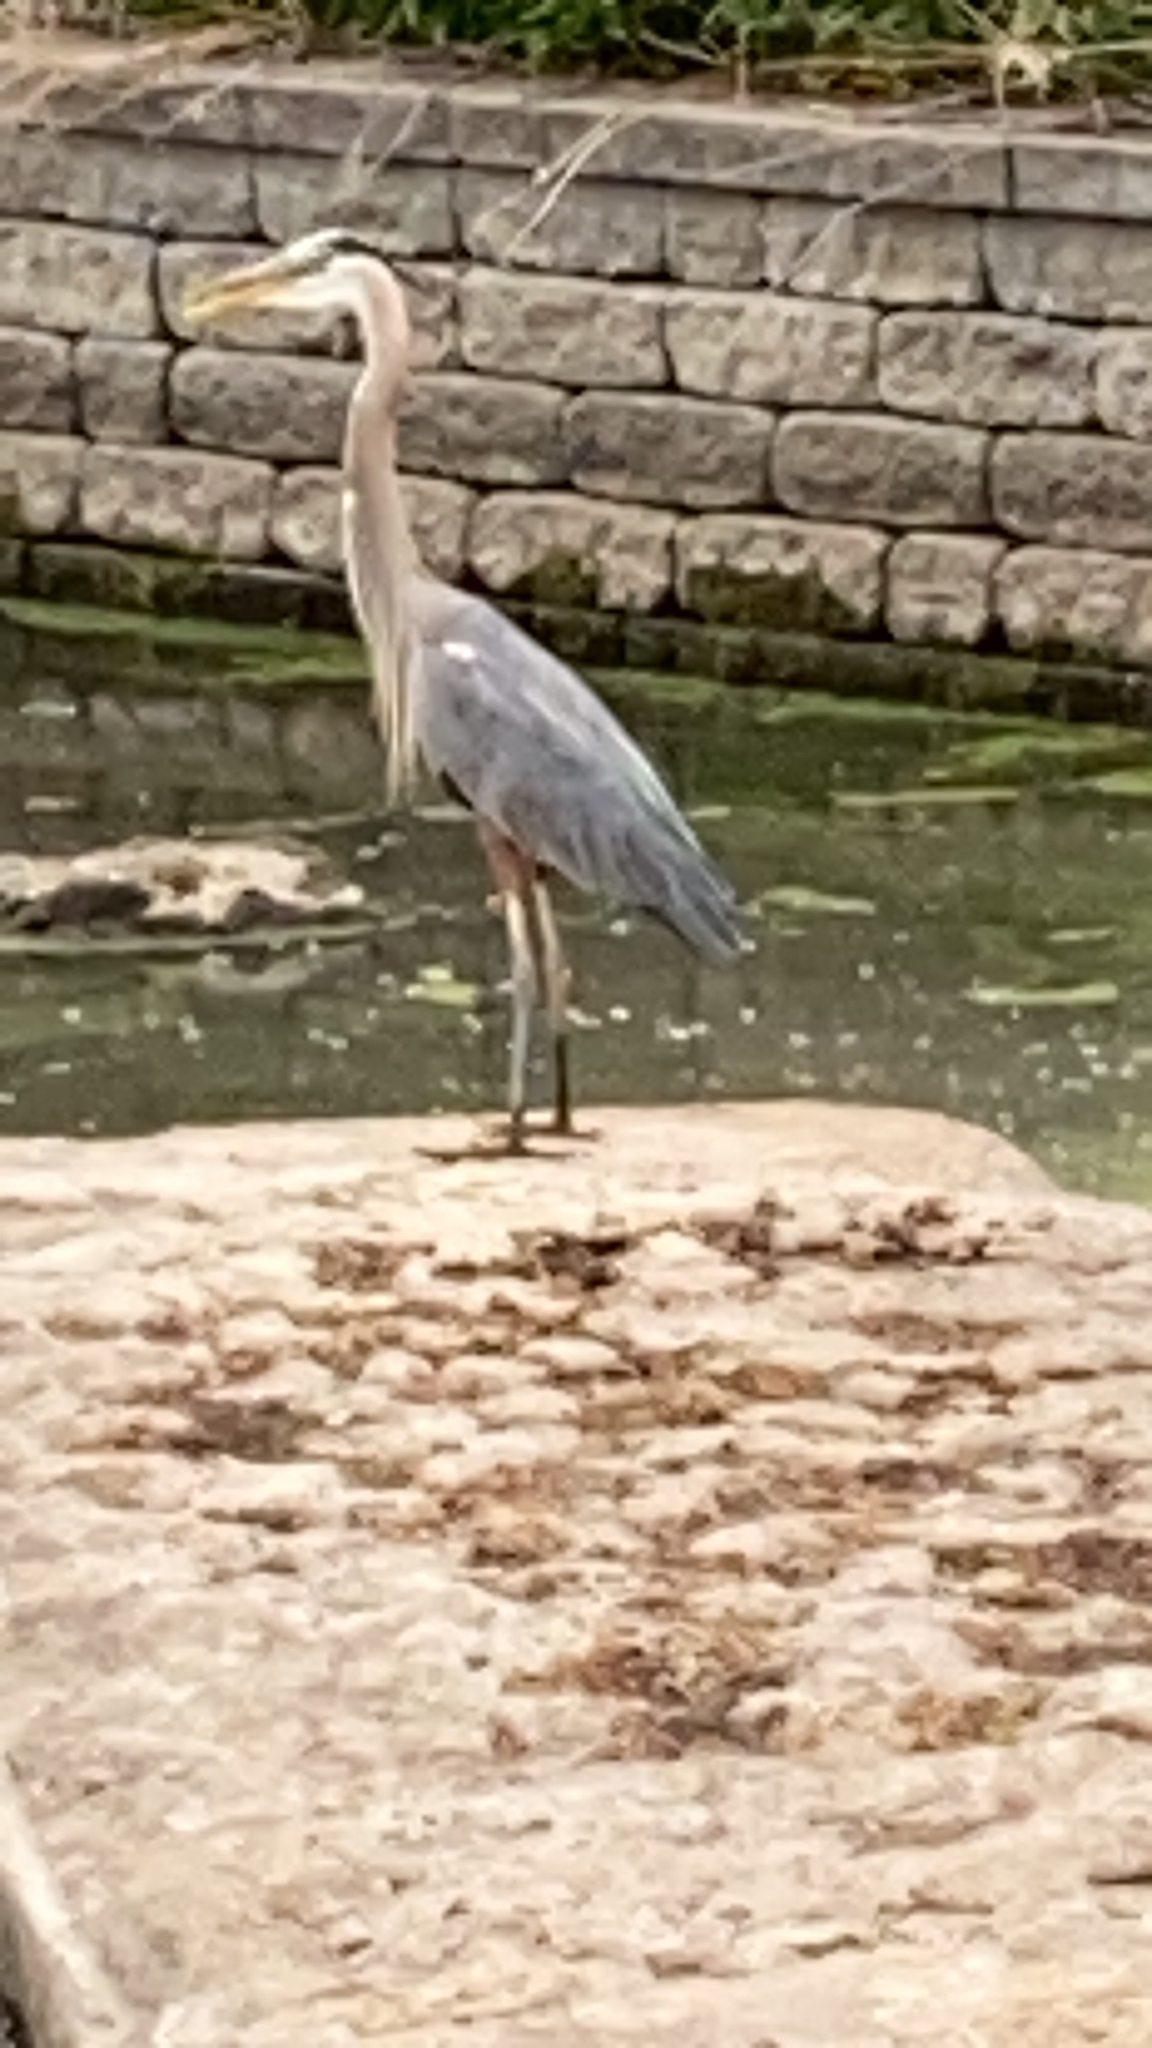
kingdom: Animalia
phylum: Chordata
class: Aves
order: Pelecaniformes
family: Ardeidae
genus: Ardea
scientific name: Ardea herodias
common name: Great blue heron
